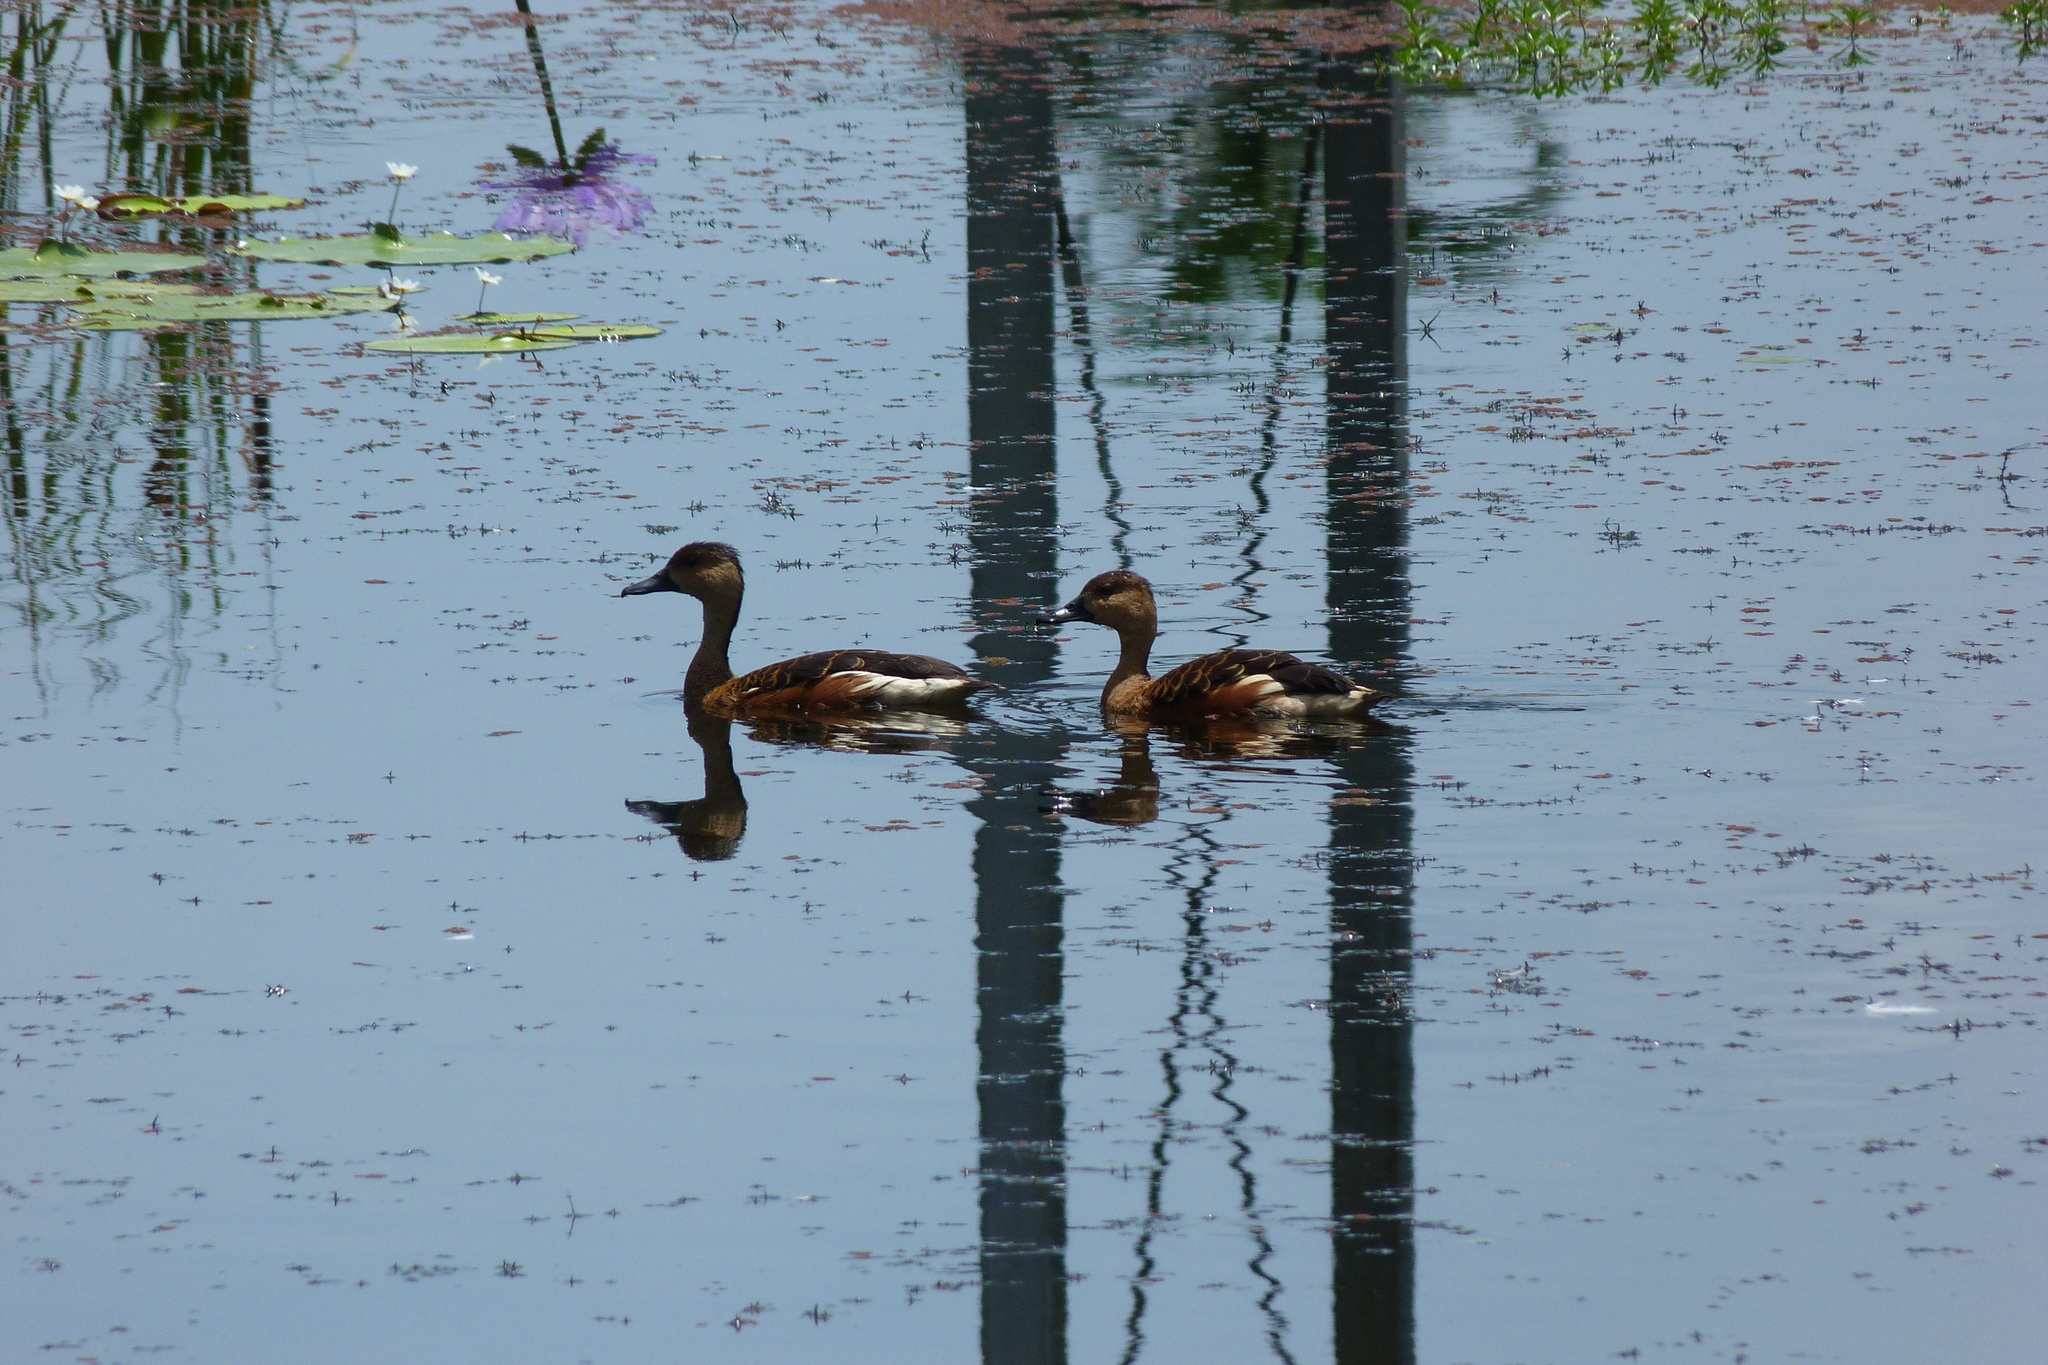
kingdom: Animalia
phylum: Chordata
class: Aves
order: Anseriformes
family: Anatidae
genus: Dendrocygna
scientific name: Dendrocygna arcuata
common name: Wandering whistling-duck
